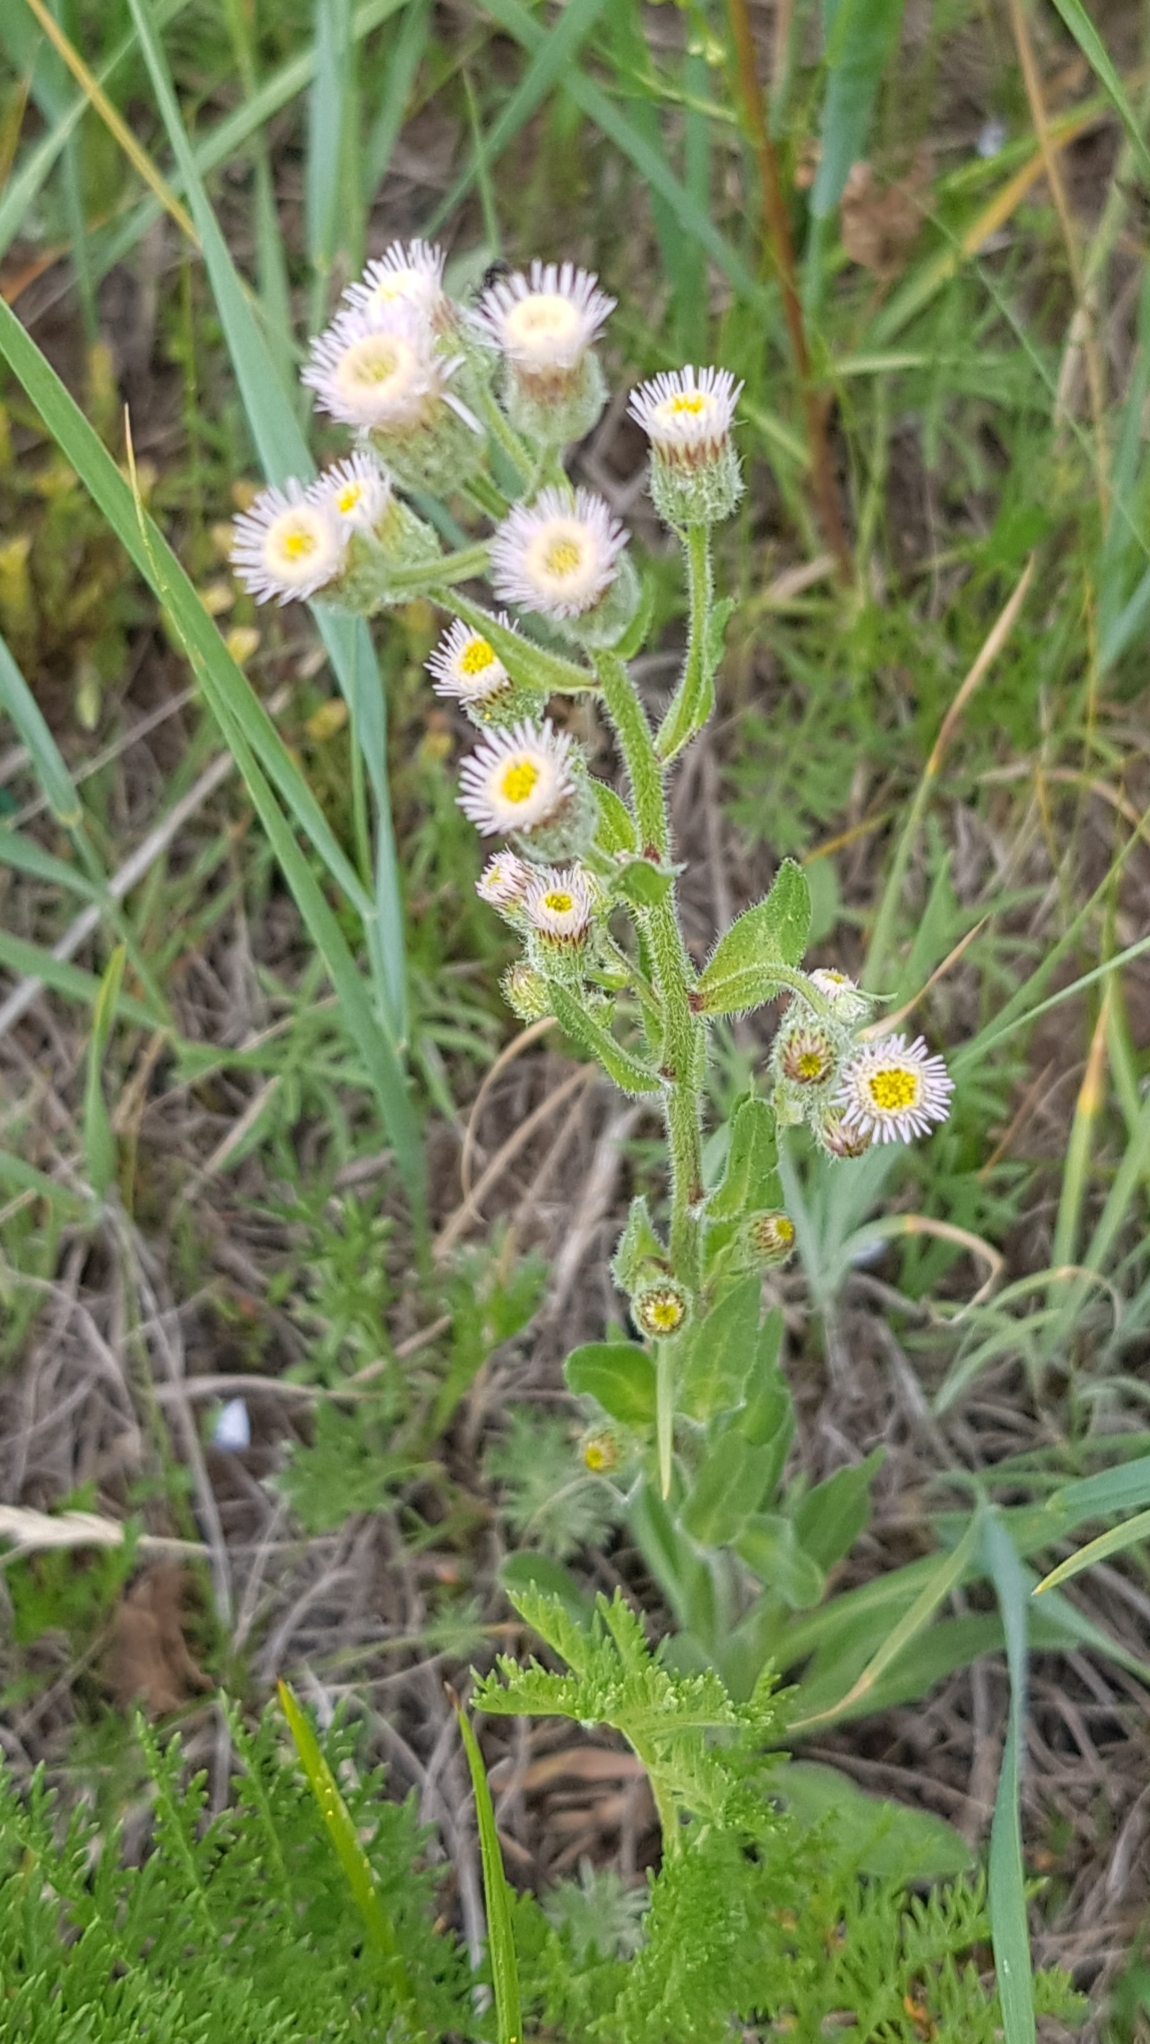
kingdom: Plantae
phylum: Tracheophyta
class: Magnoliopsida
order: Asterales
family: Asteraceae
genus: Erigeron
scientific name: Erigeron acris
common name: Blue fleabane
